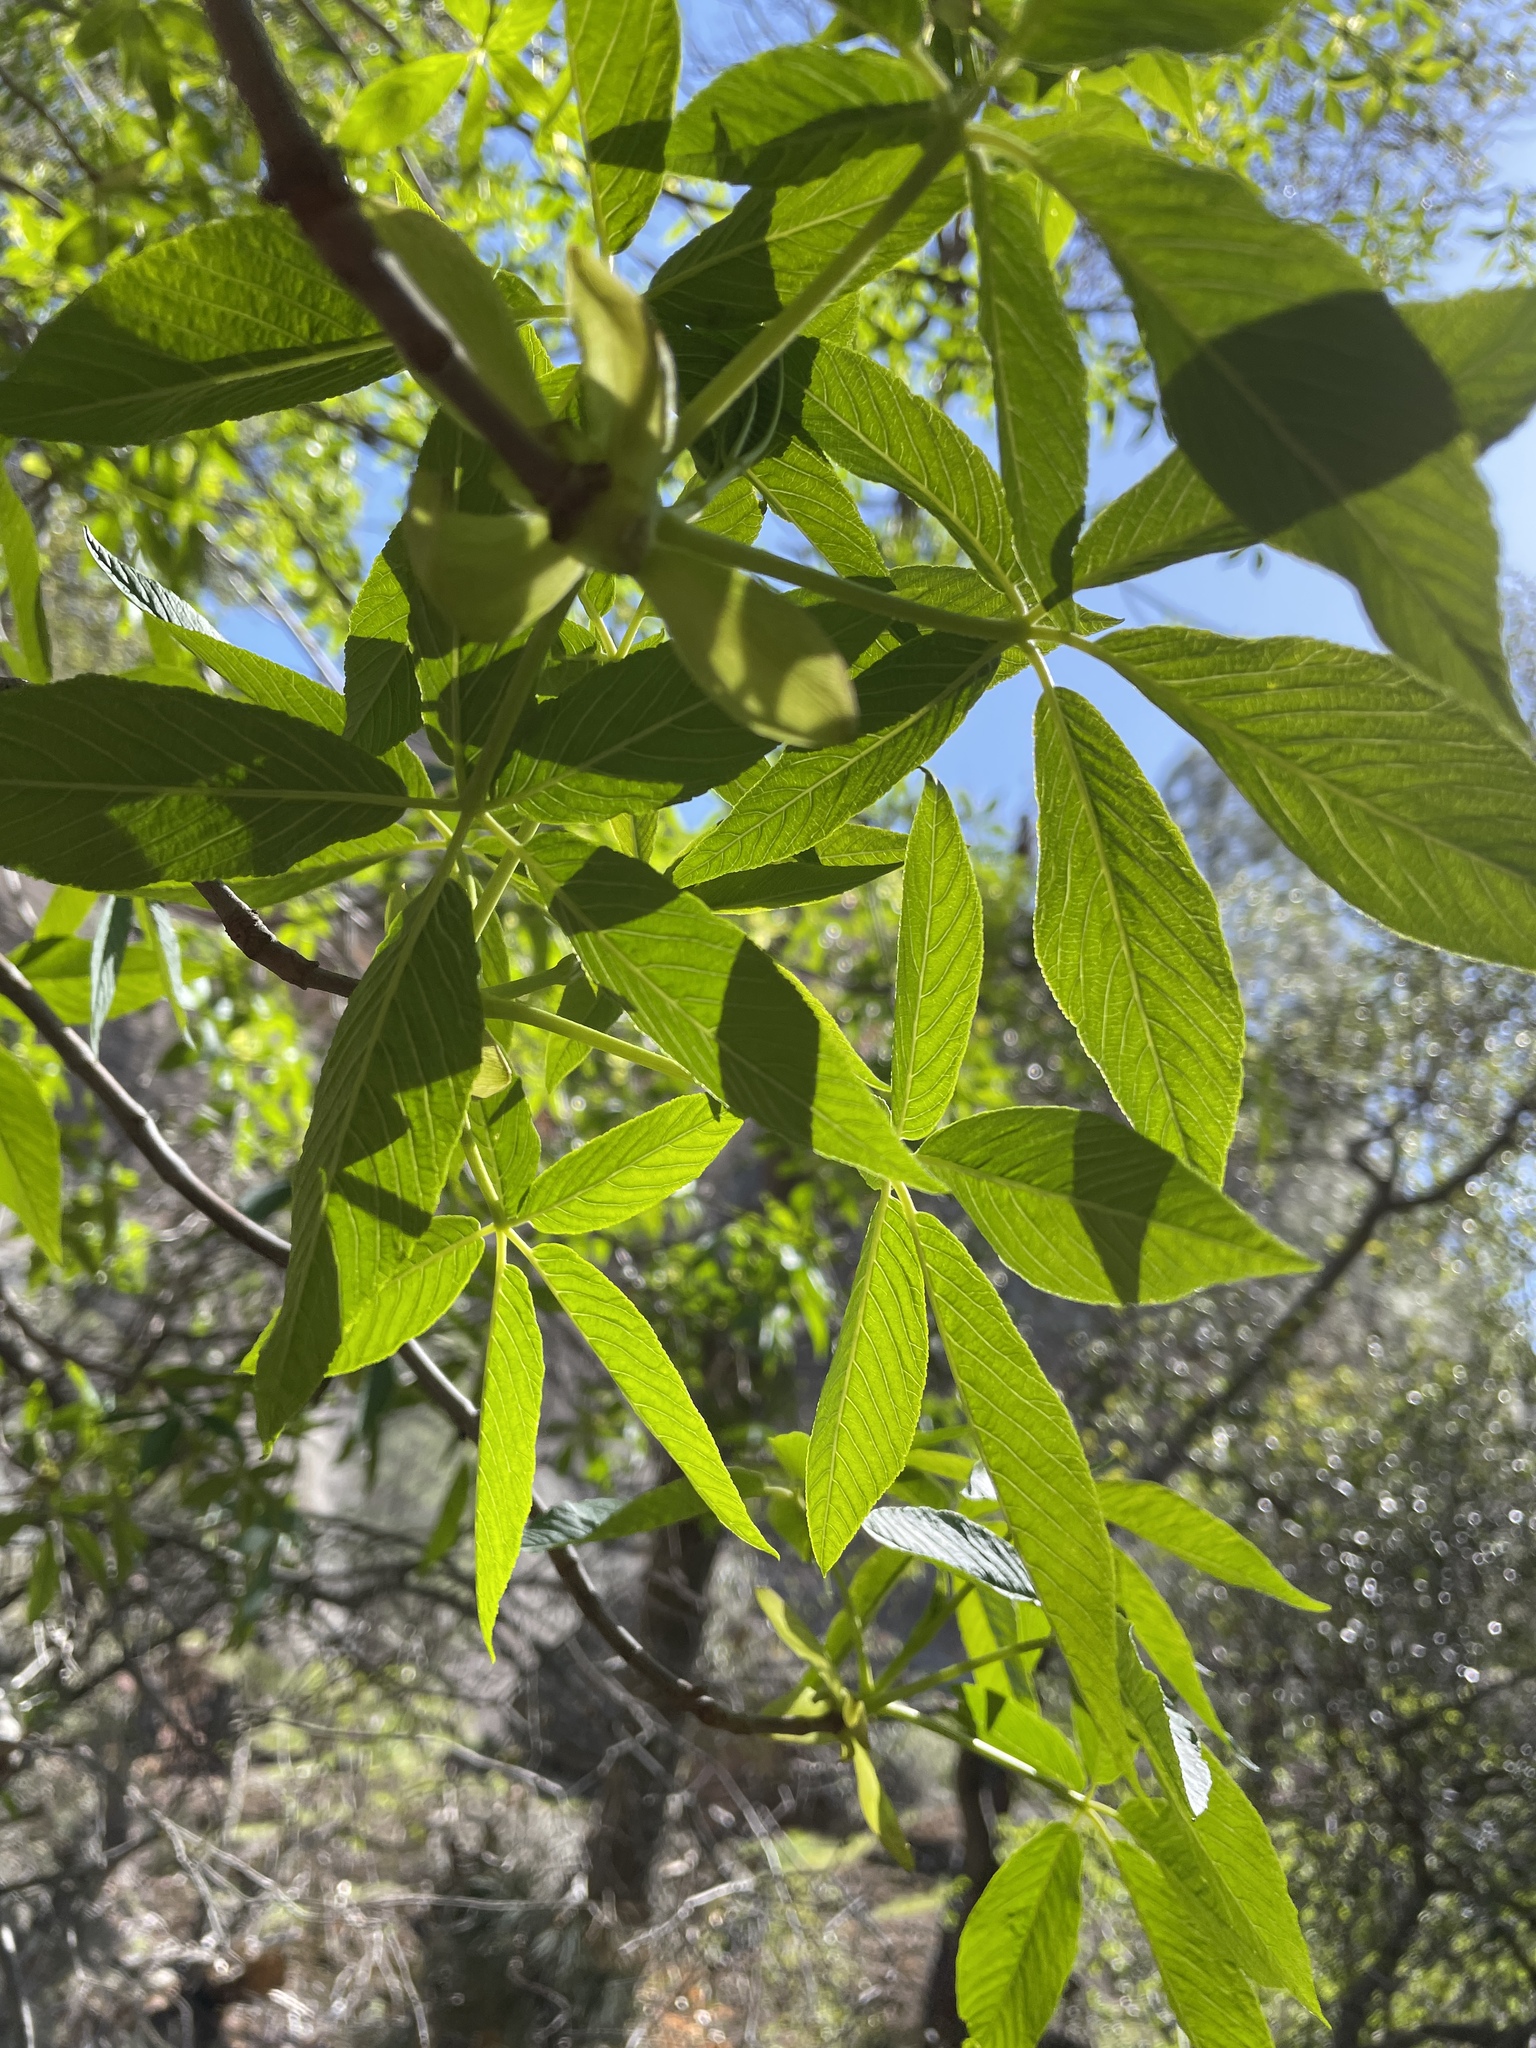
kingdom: Plantae
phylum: Tracheophyta
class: Magnoliopsida
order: Sapindales
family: Sapindaceae
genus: Aesculus
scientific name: Aesculus californica
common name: California buckeye
